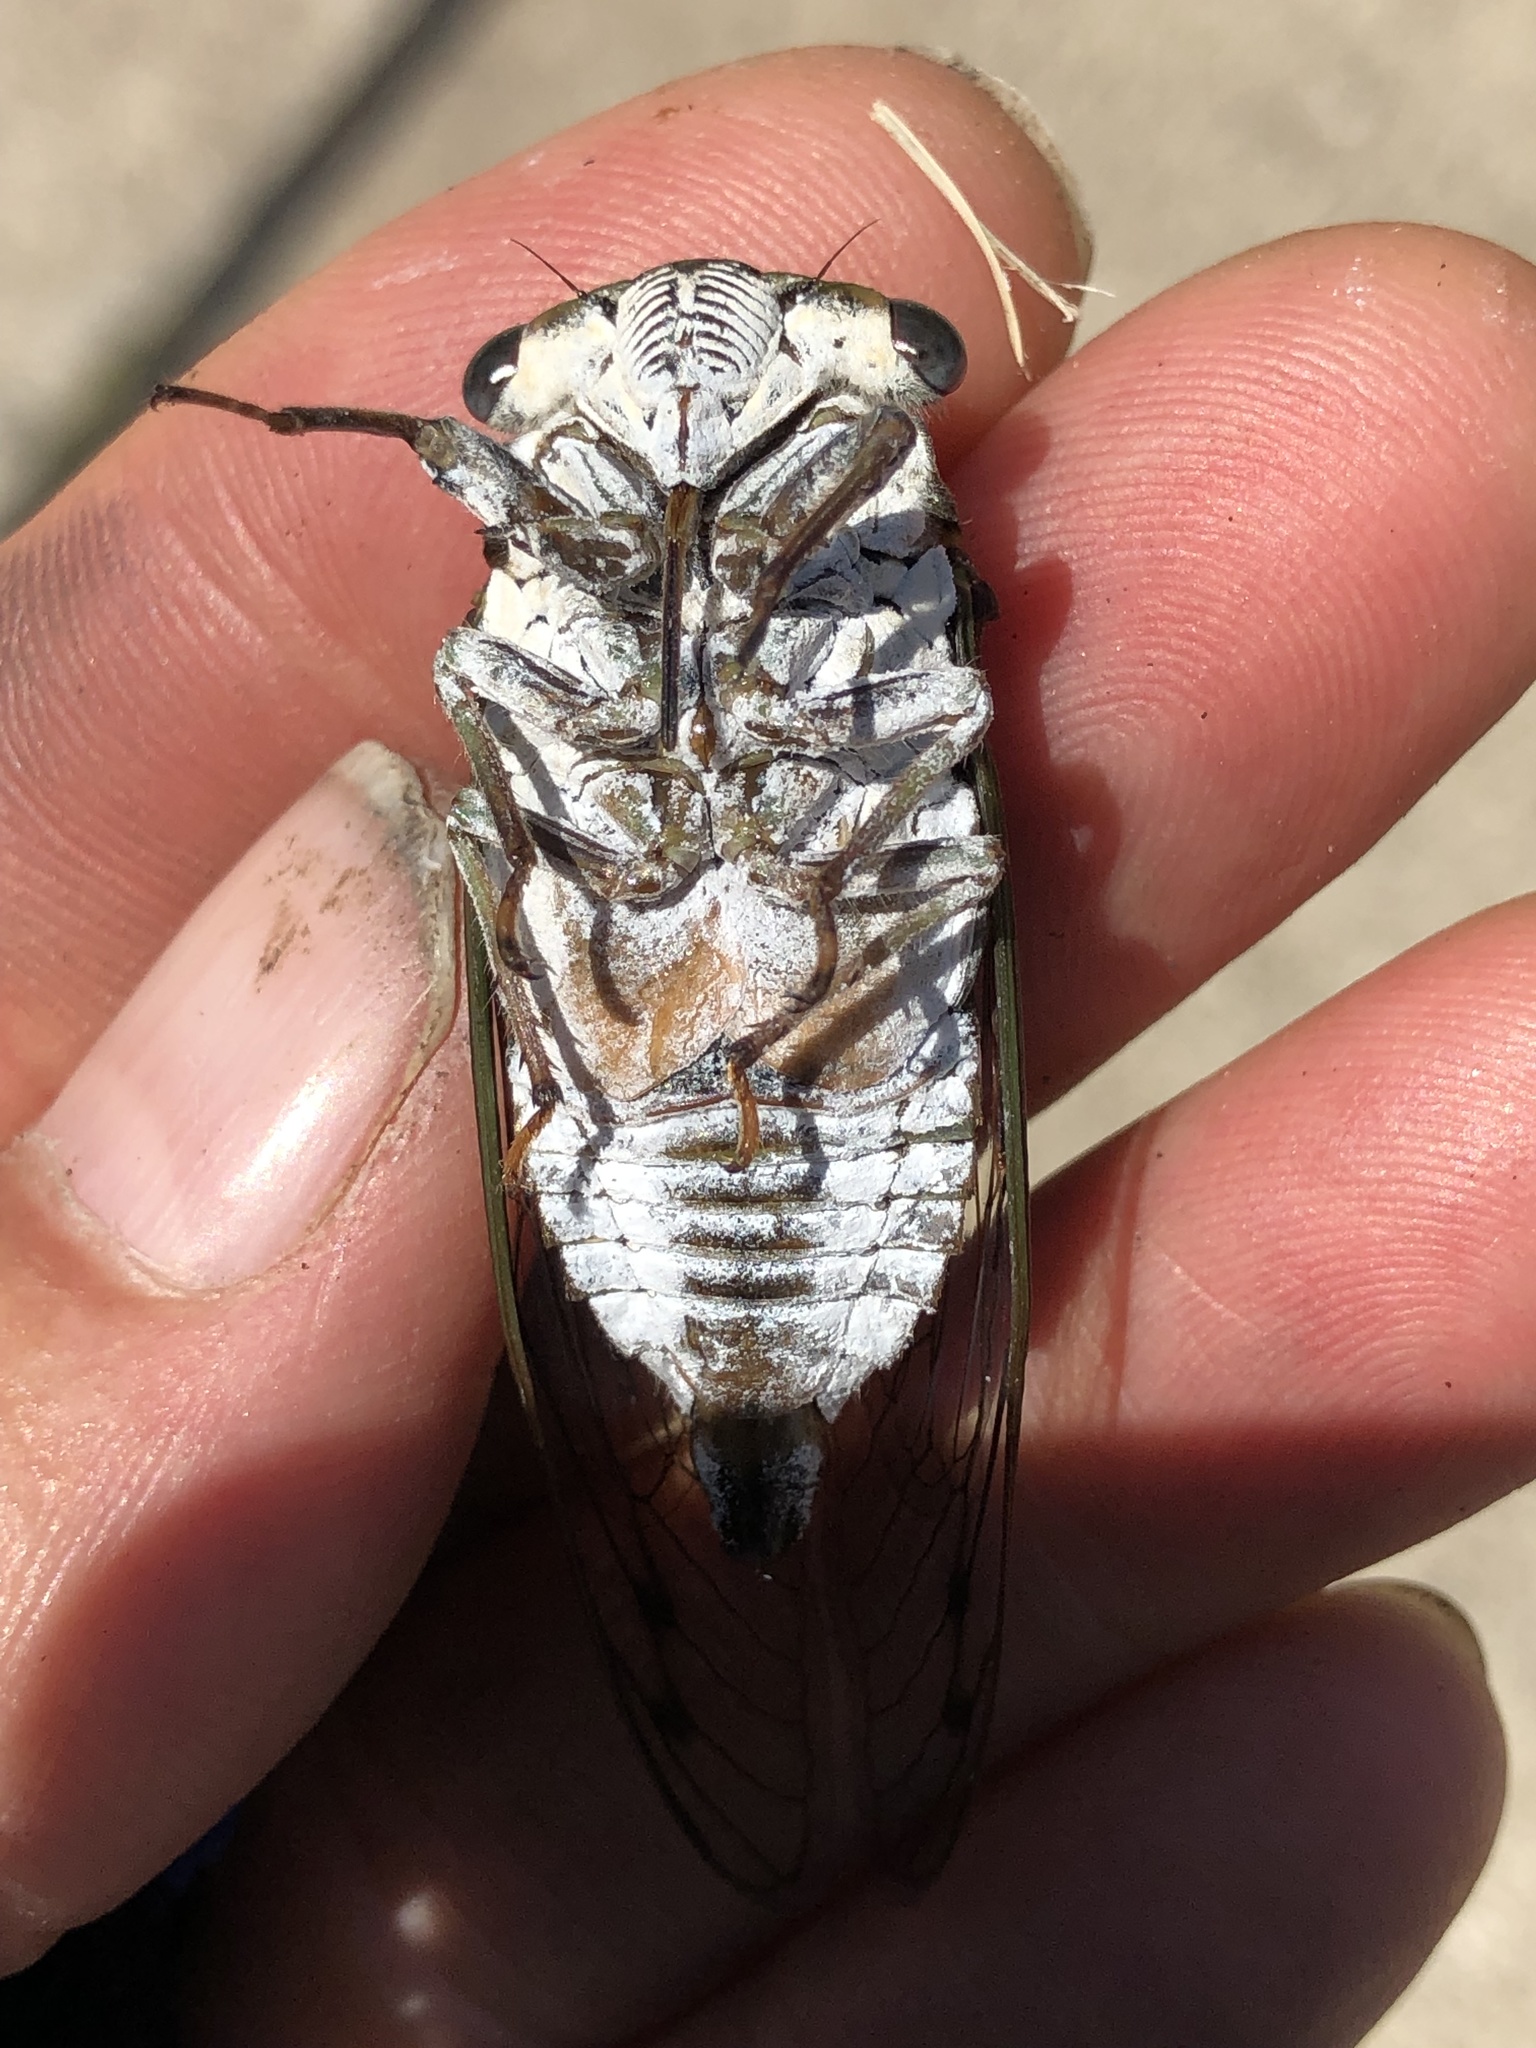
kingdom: Animalia
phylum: Arthropoda
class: Insecta
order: Hemiptera
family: Cicadidae
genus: Neotibicen
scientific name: Neotibicen pruinosus
